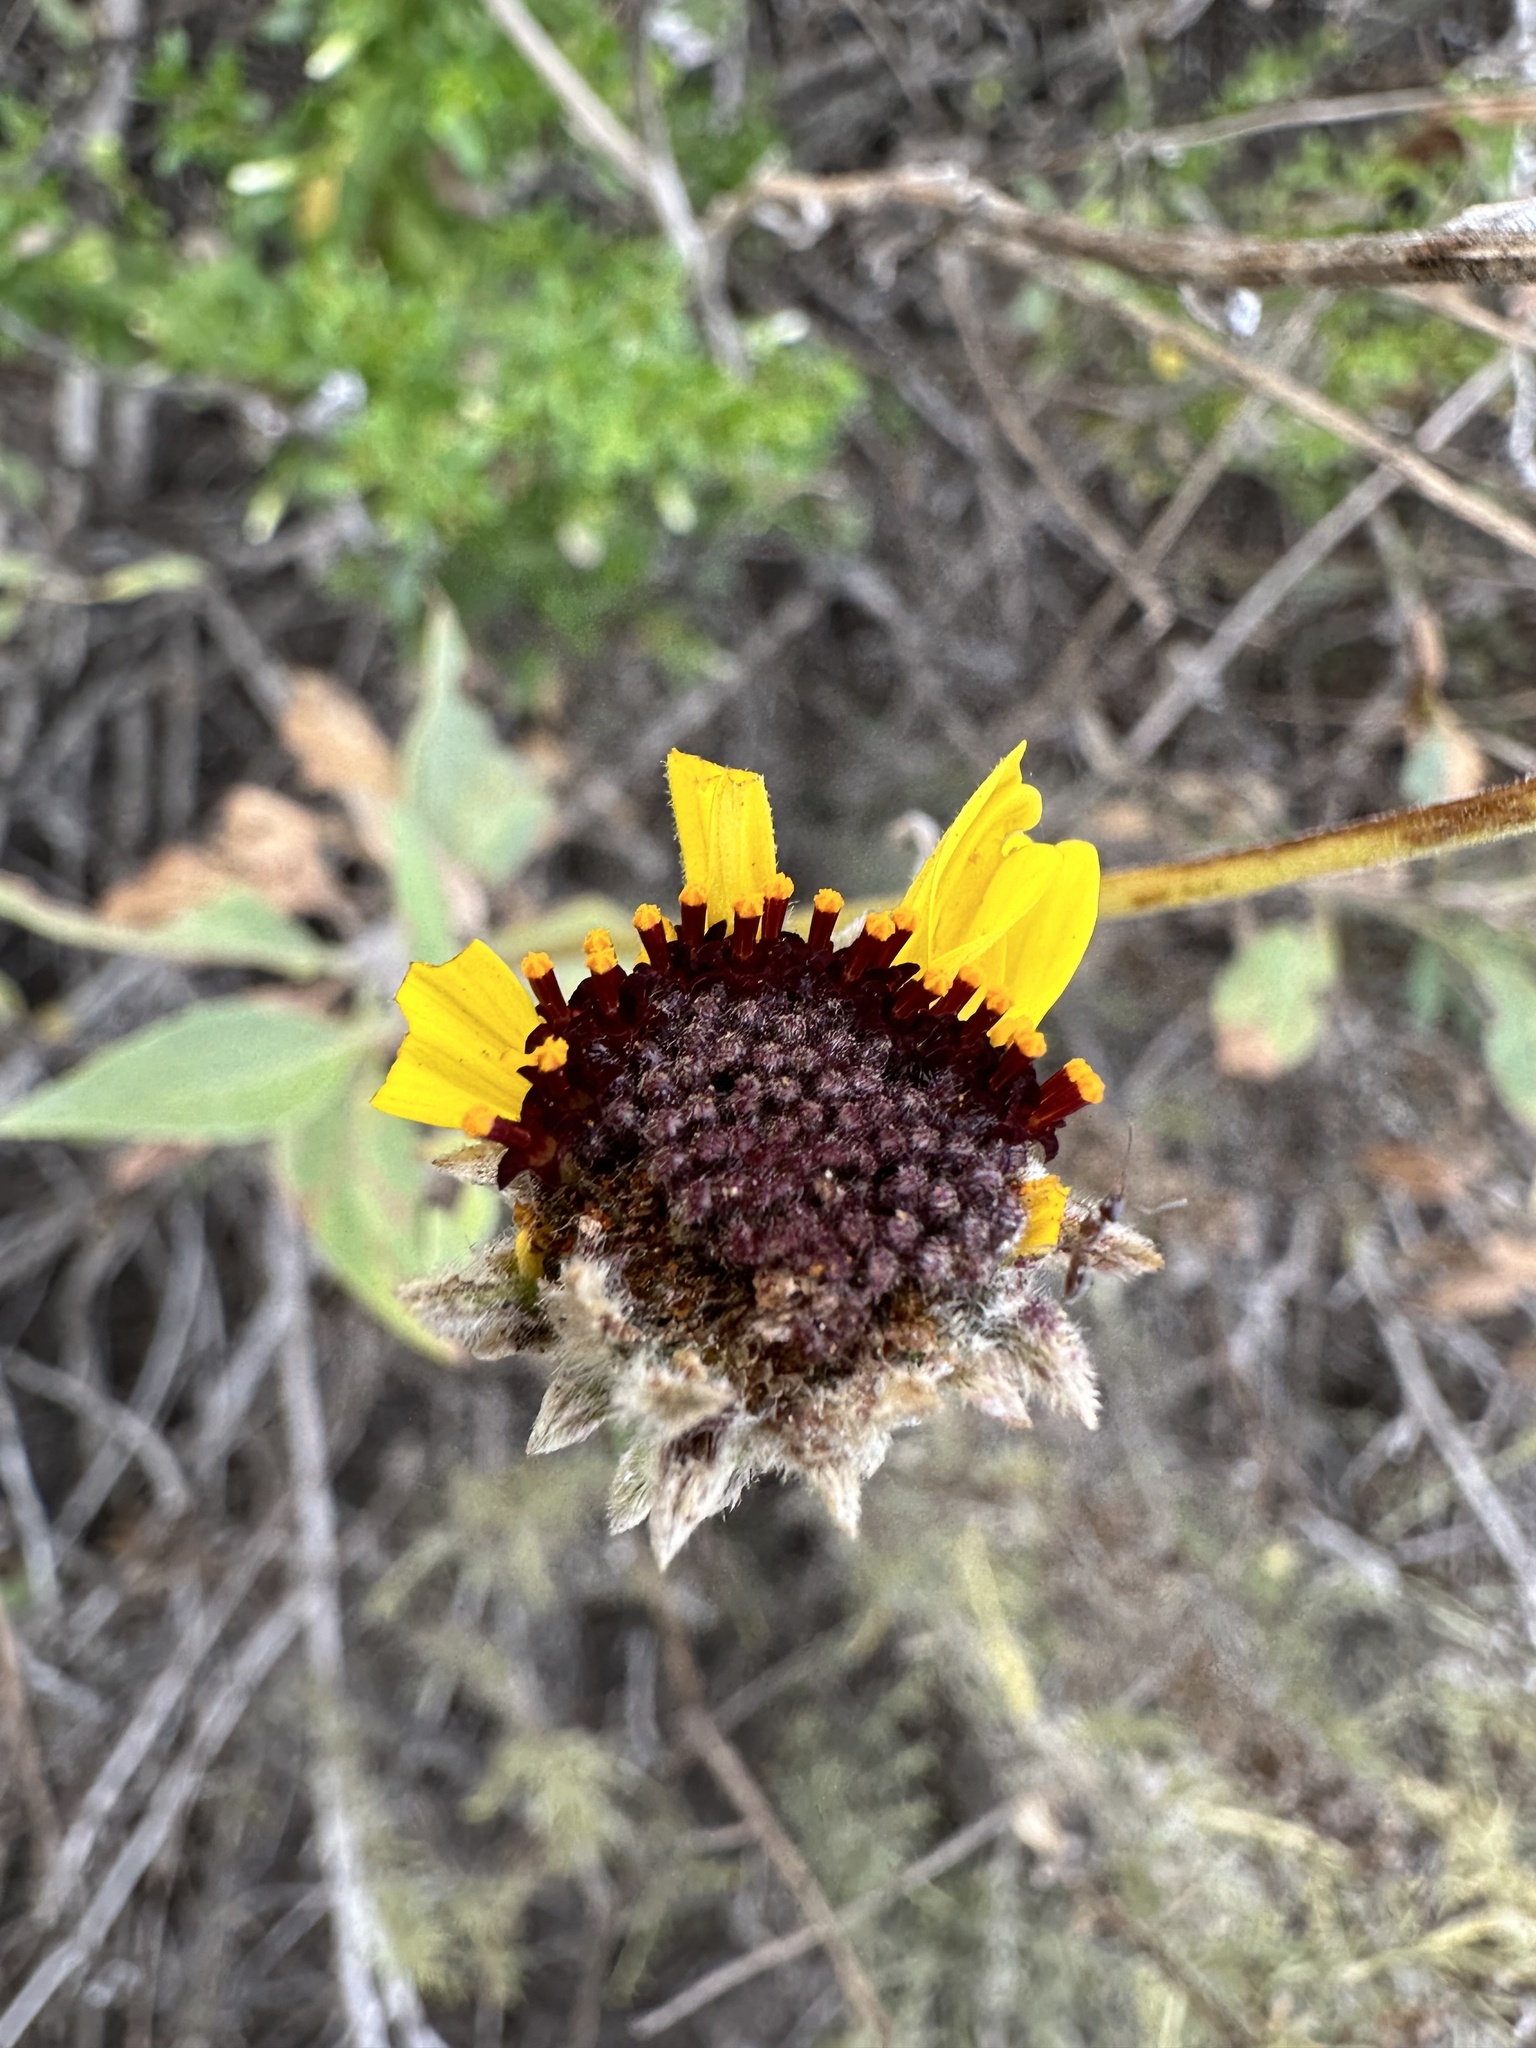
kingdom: Plantae
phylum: Tracheophyta
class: Magnoliopsida
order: Asterales
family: Asteraceae
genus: Encelia
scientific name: Encelia californica
